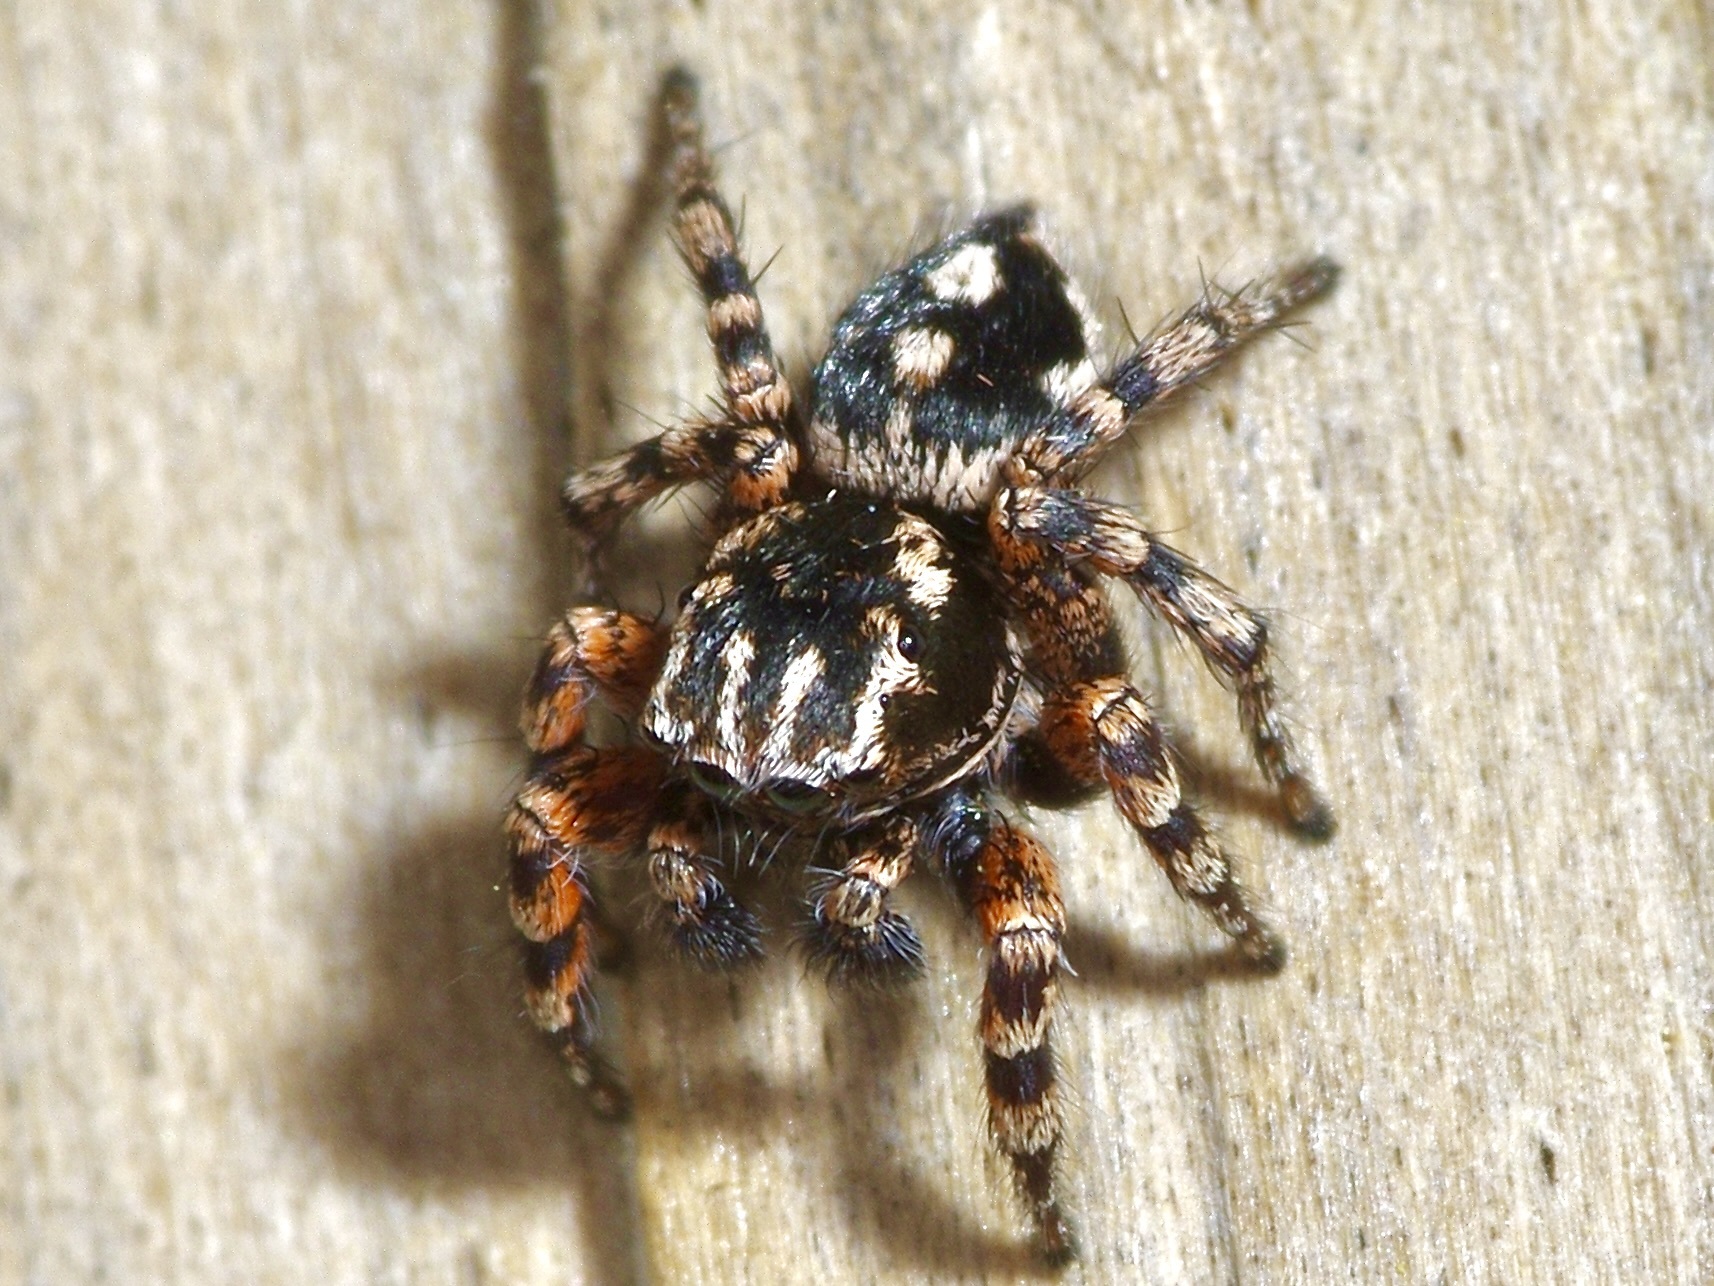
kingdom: Animalia
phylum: Arthropoda
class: Arachnida
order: Araneae
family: Salticidae
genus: Habronattus
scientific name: Habronattus fallax
